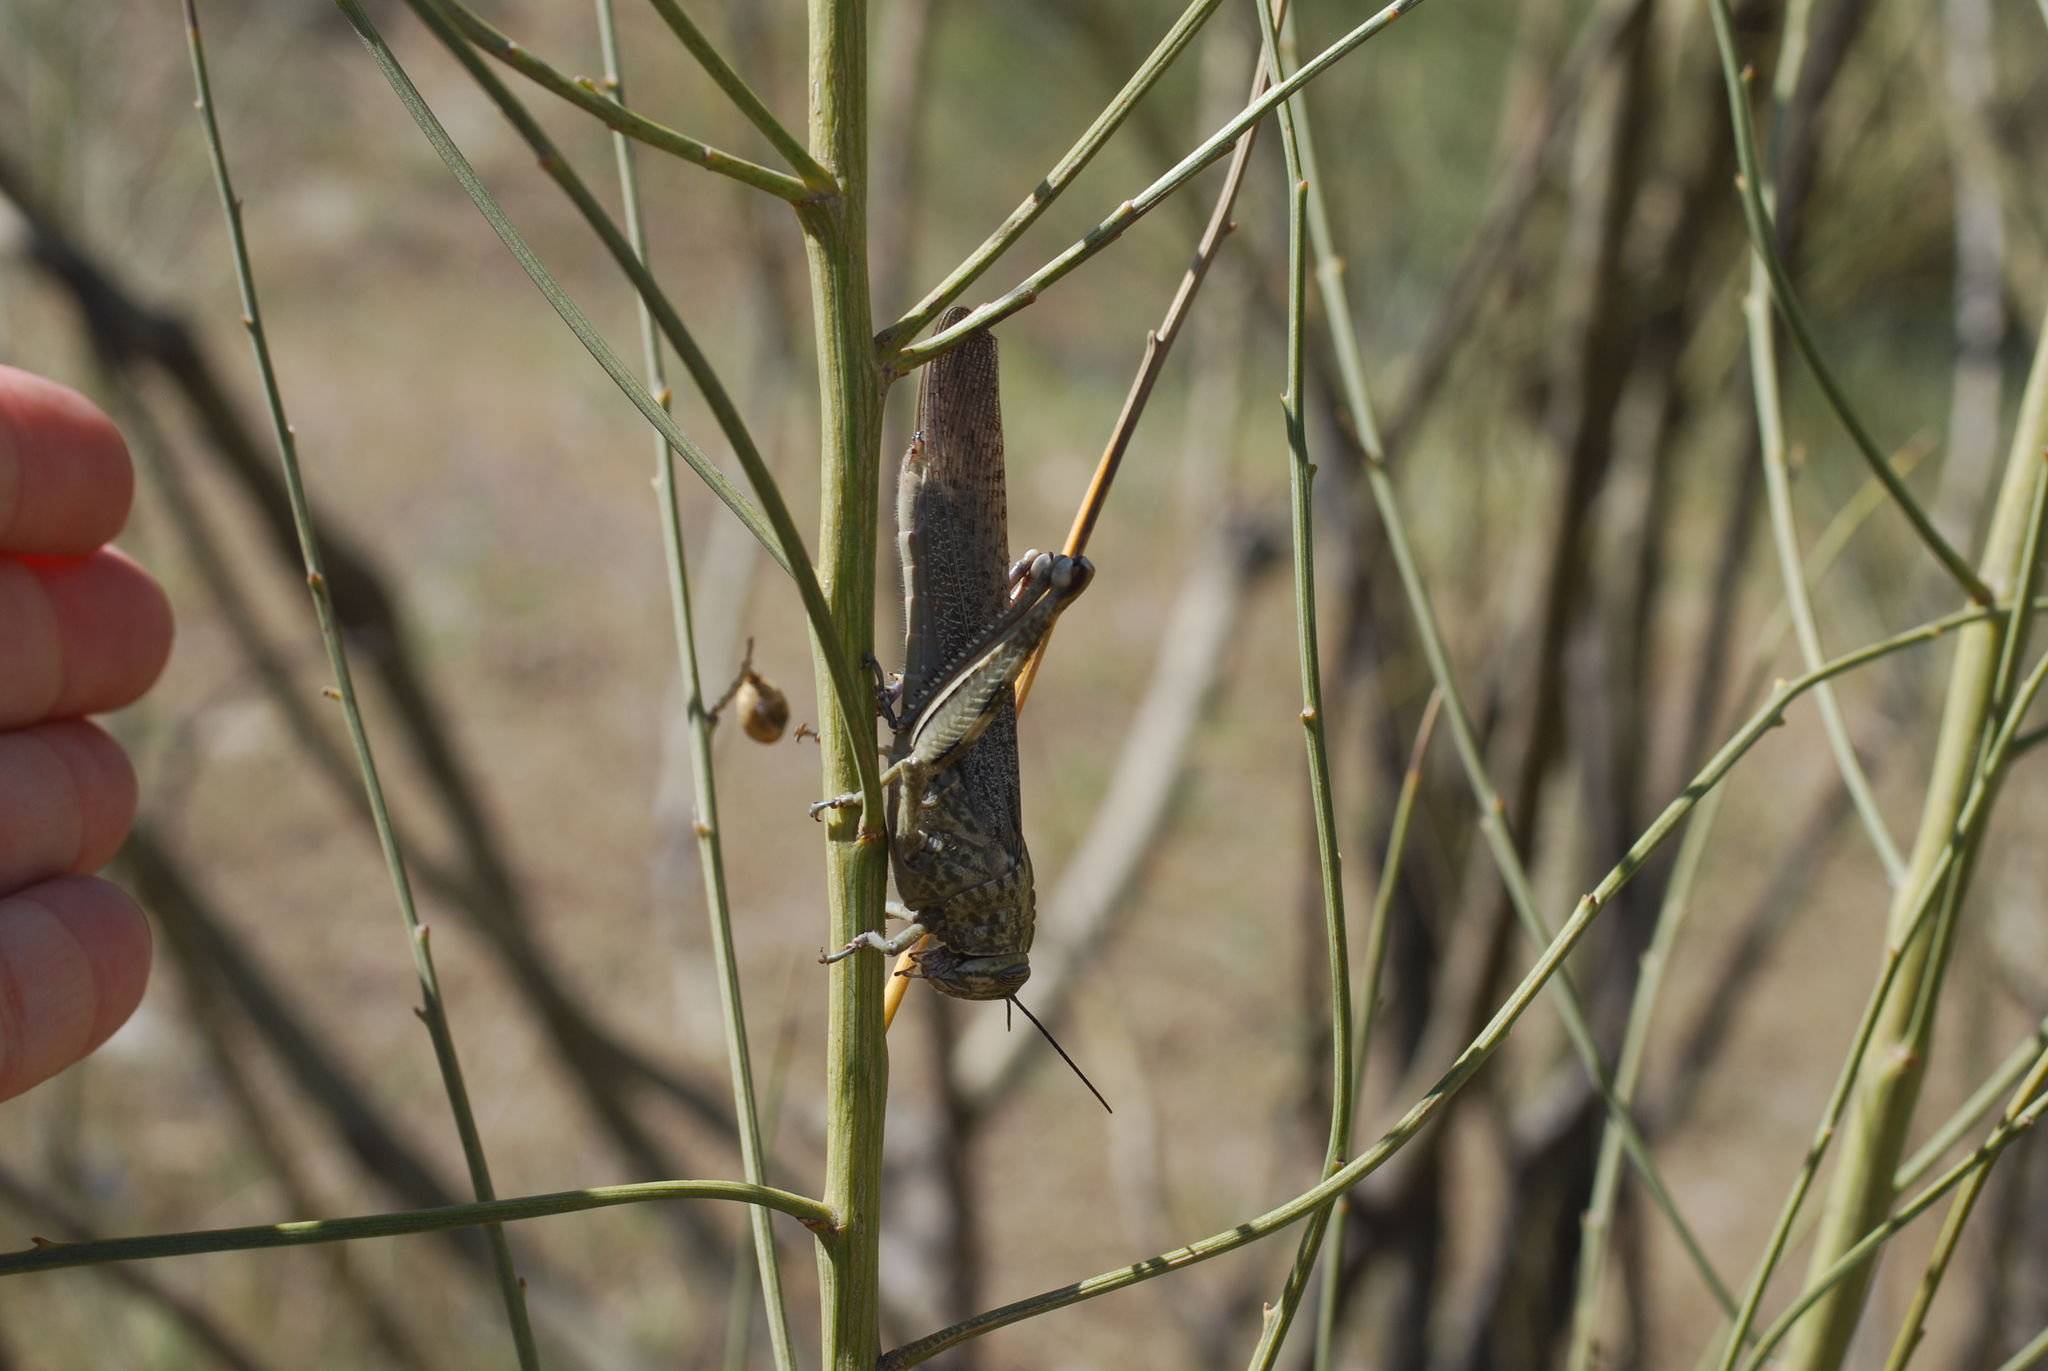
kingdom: Animalia
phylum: Arthropoda
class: Insecta
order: Orthoptera
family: Acrididae
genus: Anacridium
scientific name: Anacridium aegyptium
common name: Egyptian grasshopper
